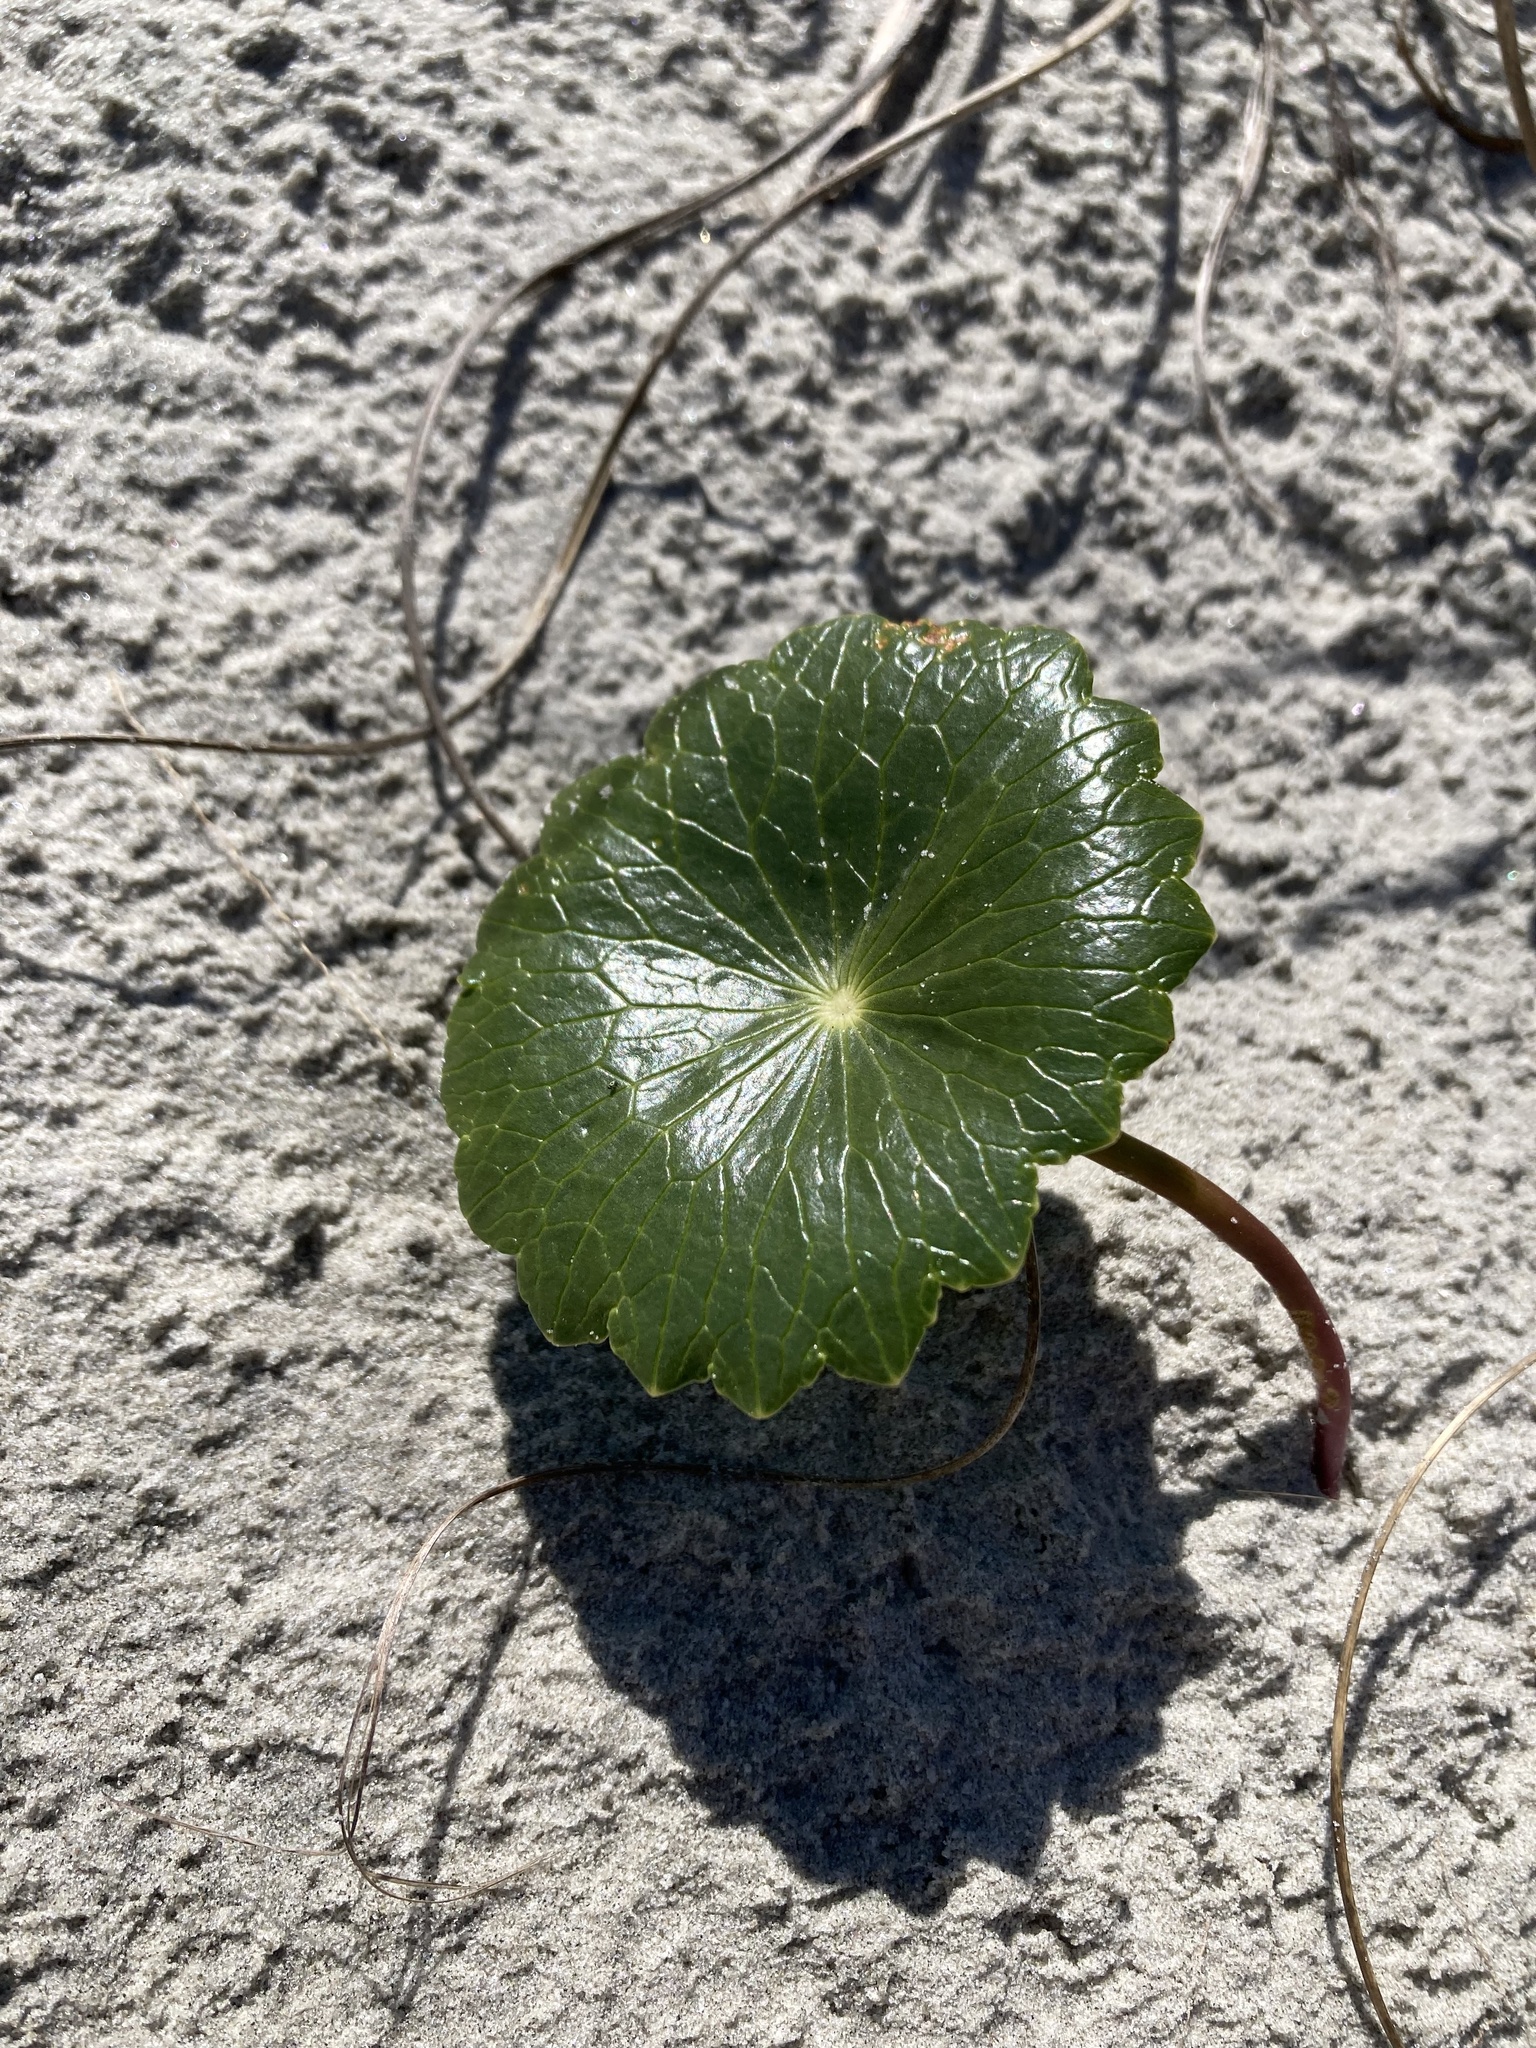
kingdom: Plantae
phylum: Tracheophyta
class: Magnoliopsida
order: Apiales
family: Araliaceae
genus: Hydrocotyle
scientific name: Hydrocotyle bonariensis
